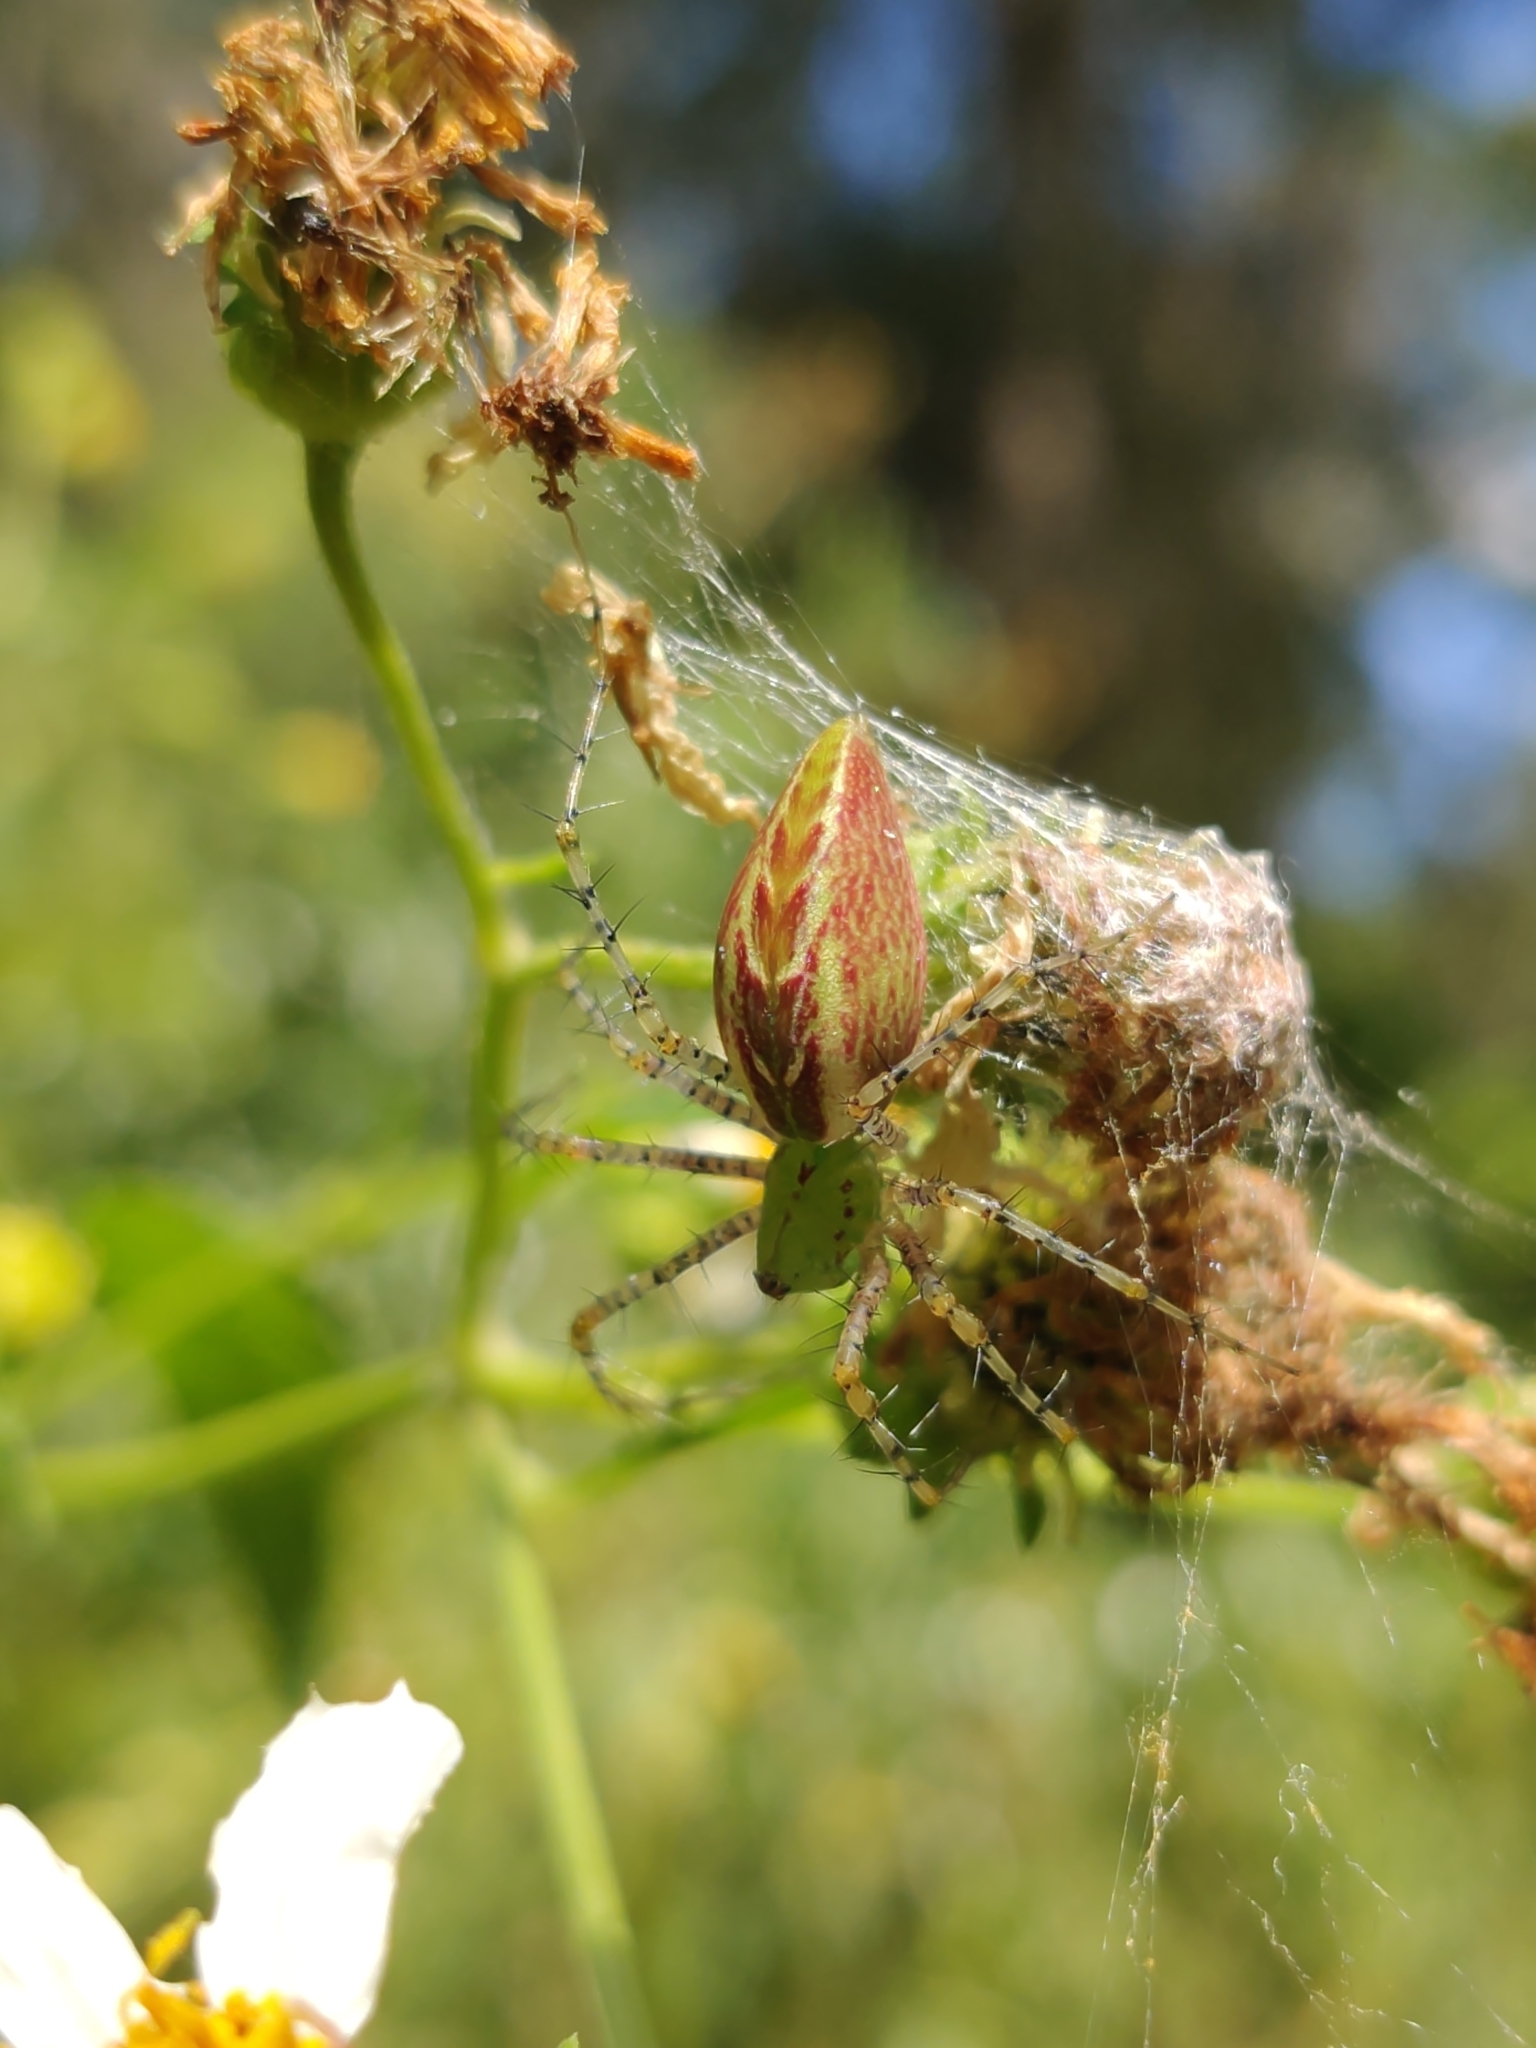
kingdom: Animalia
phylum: Arthropoda
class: Arachnida
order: Araneae
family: Oxyopidae
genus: Peucetia
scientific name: Peucetia viridans
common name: Lynx spiders
